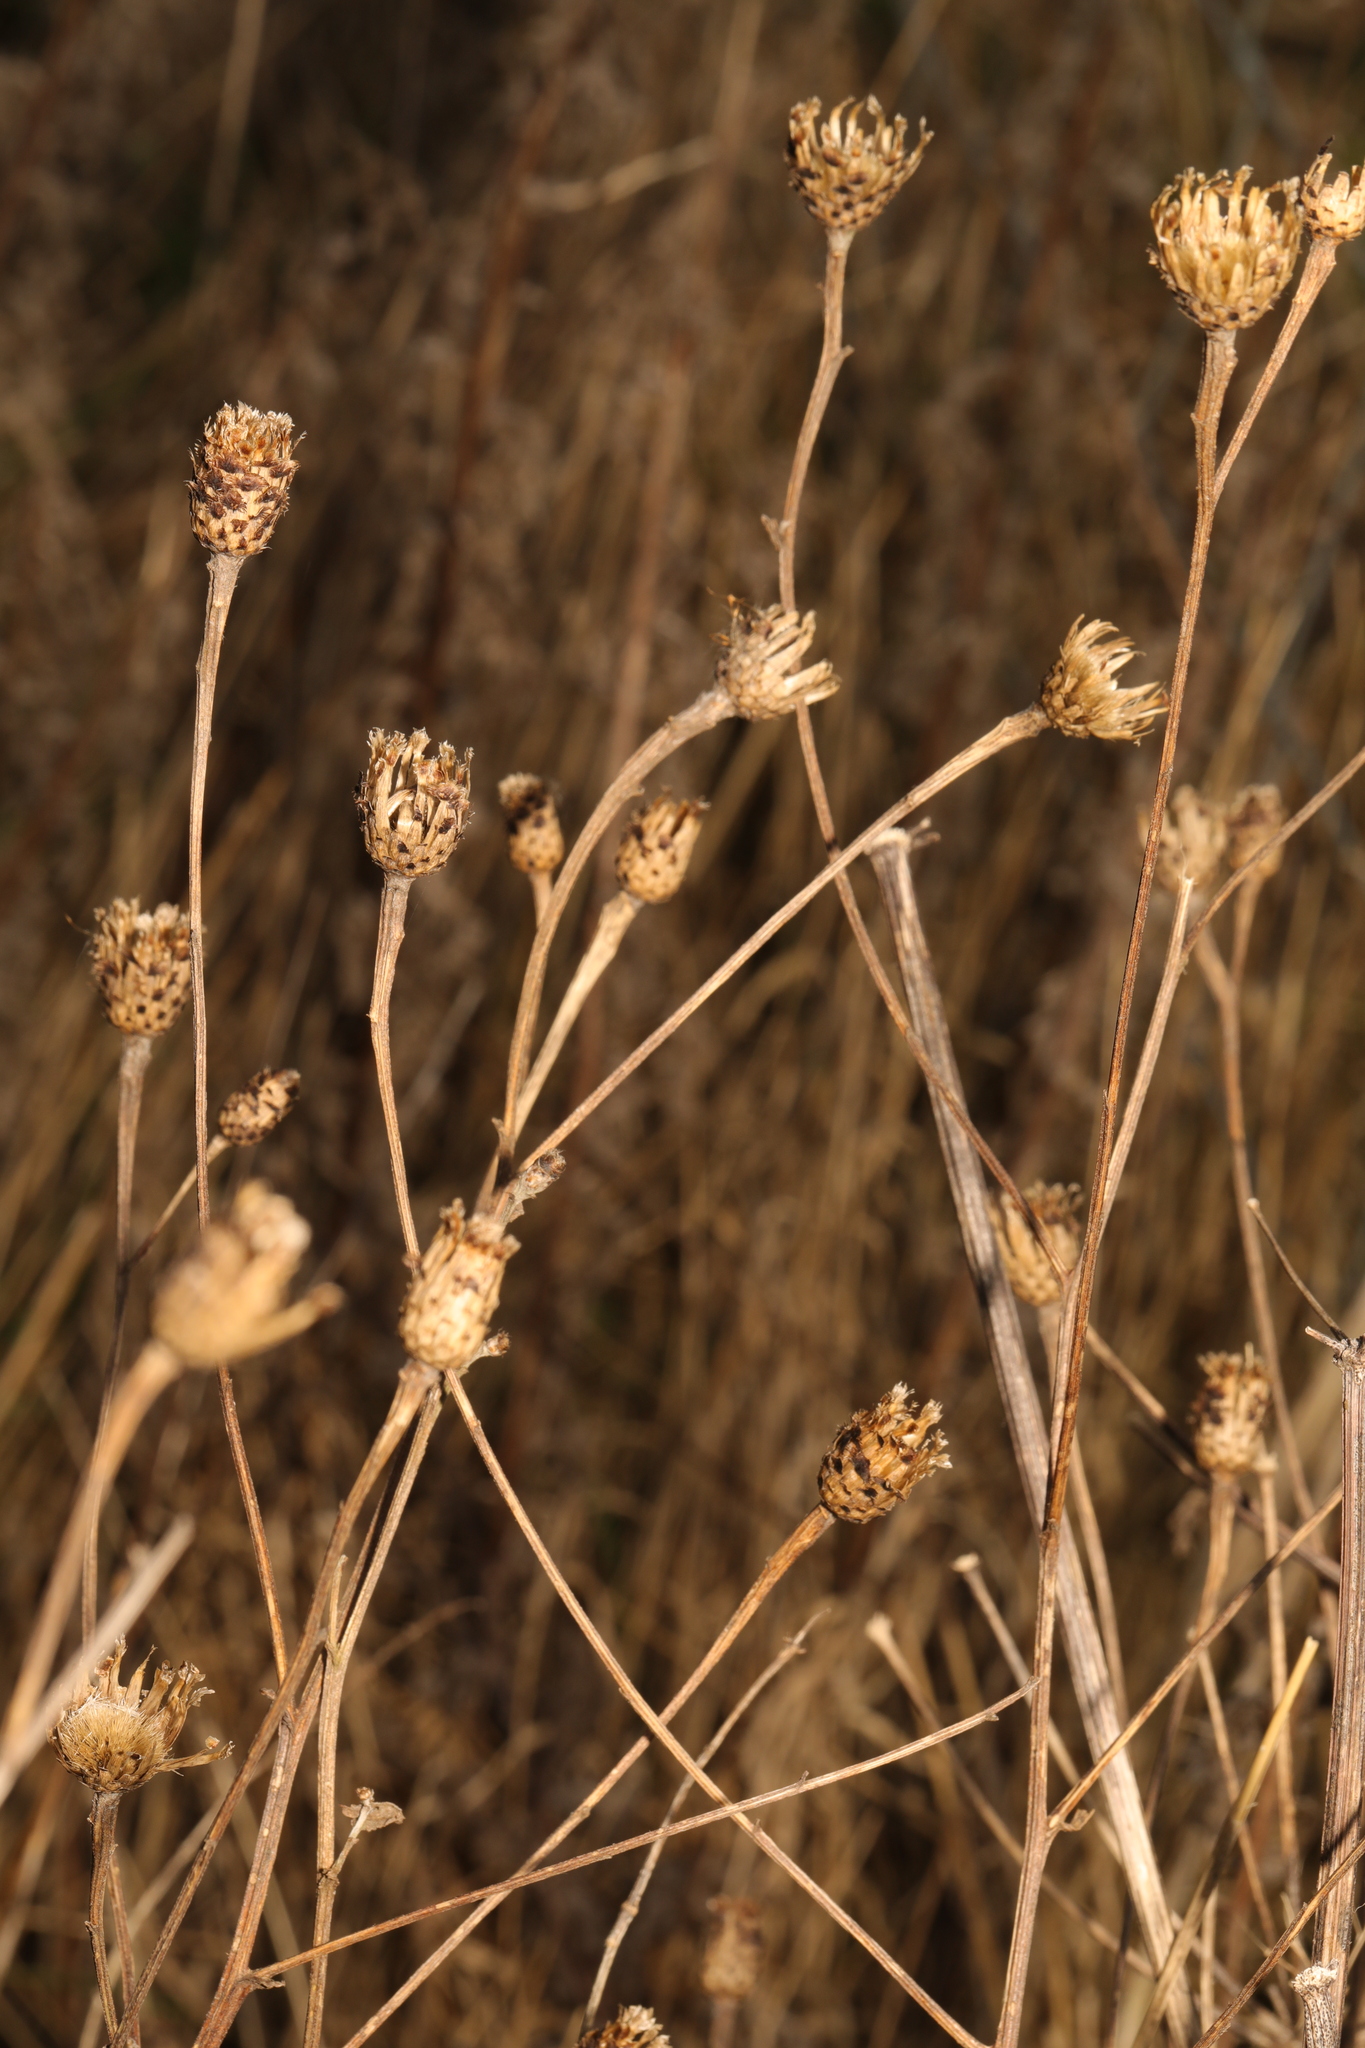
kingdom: Plantae
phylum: Tracheophyta
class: Magnoliopsida
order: Asterales
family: Asteraceae
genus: Centaurea
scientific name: Centaurea nigra
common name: Lesser knapweed
